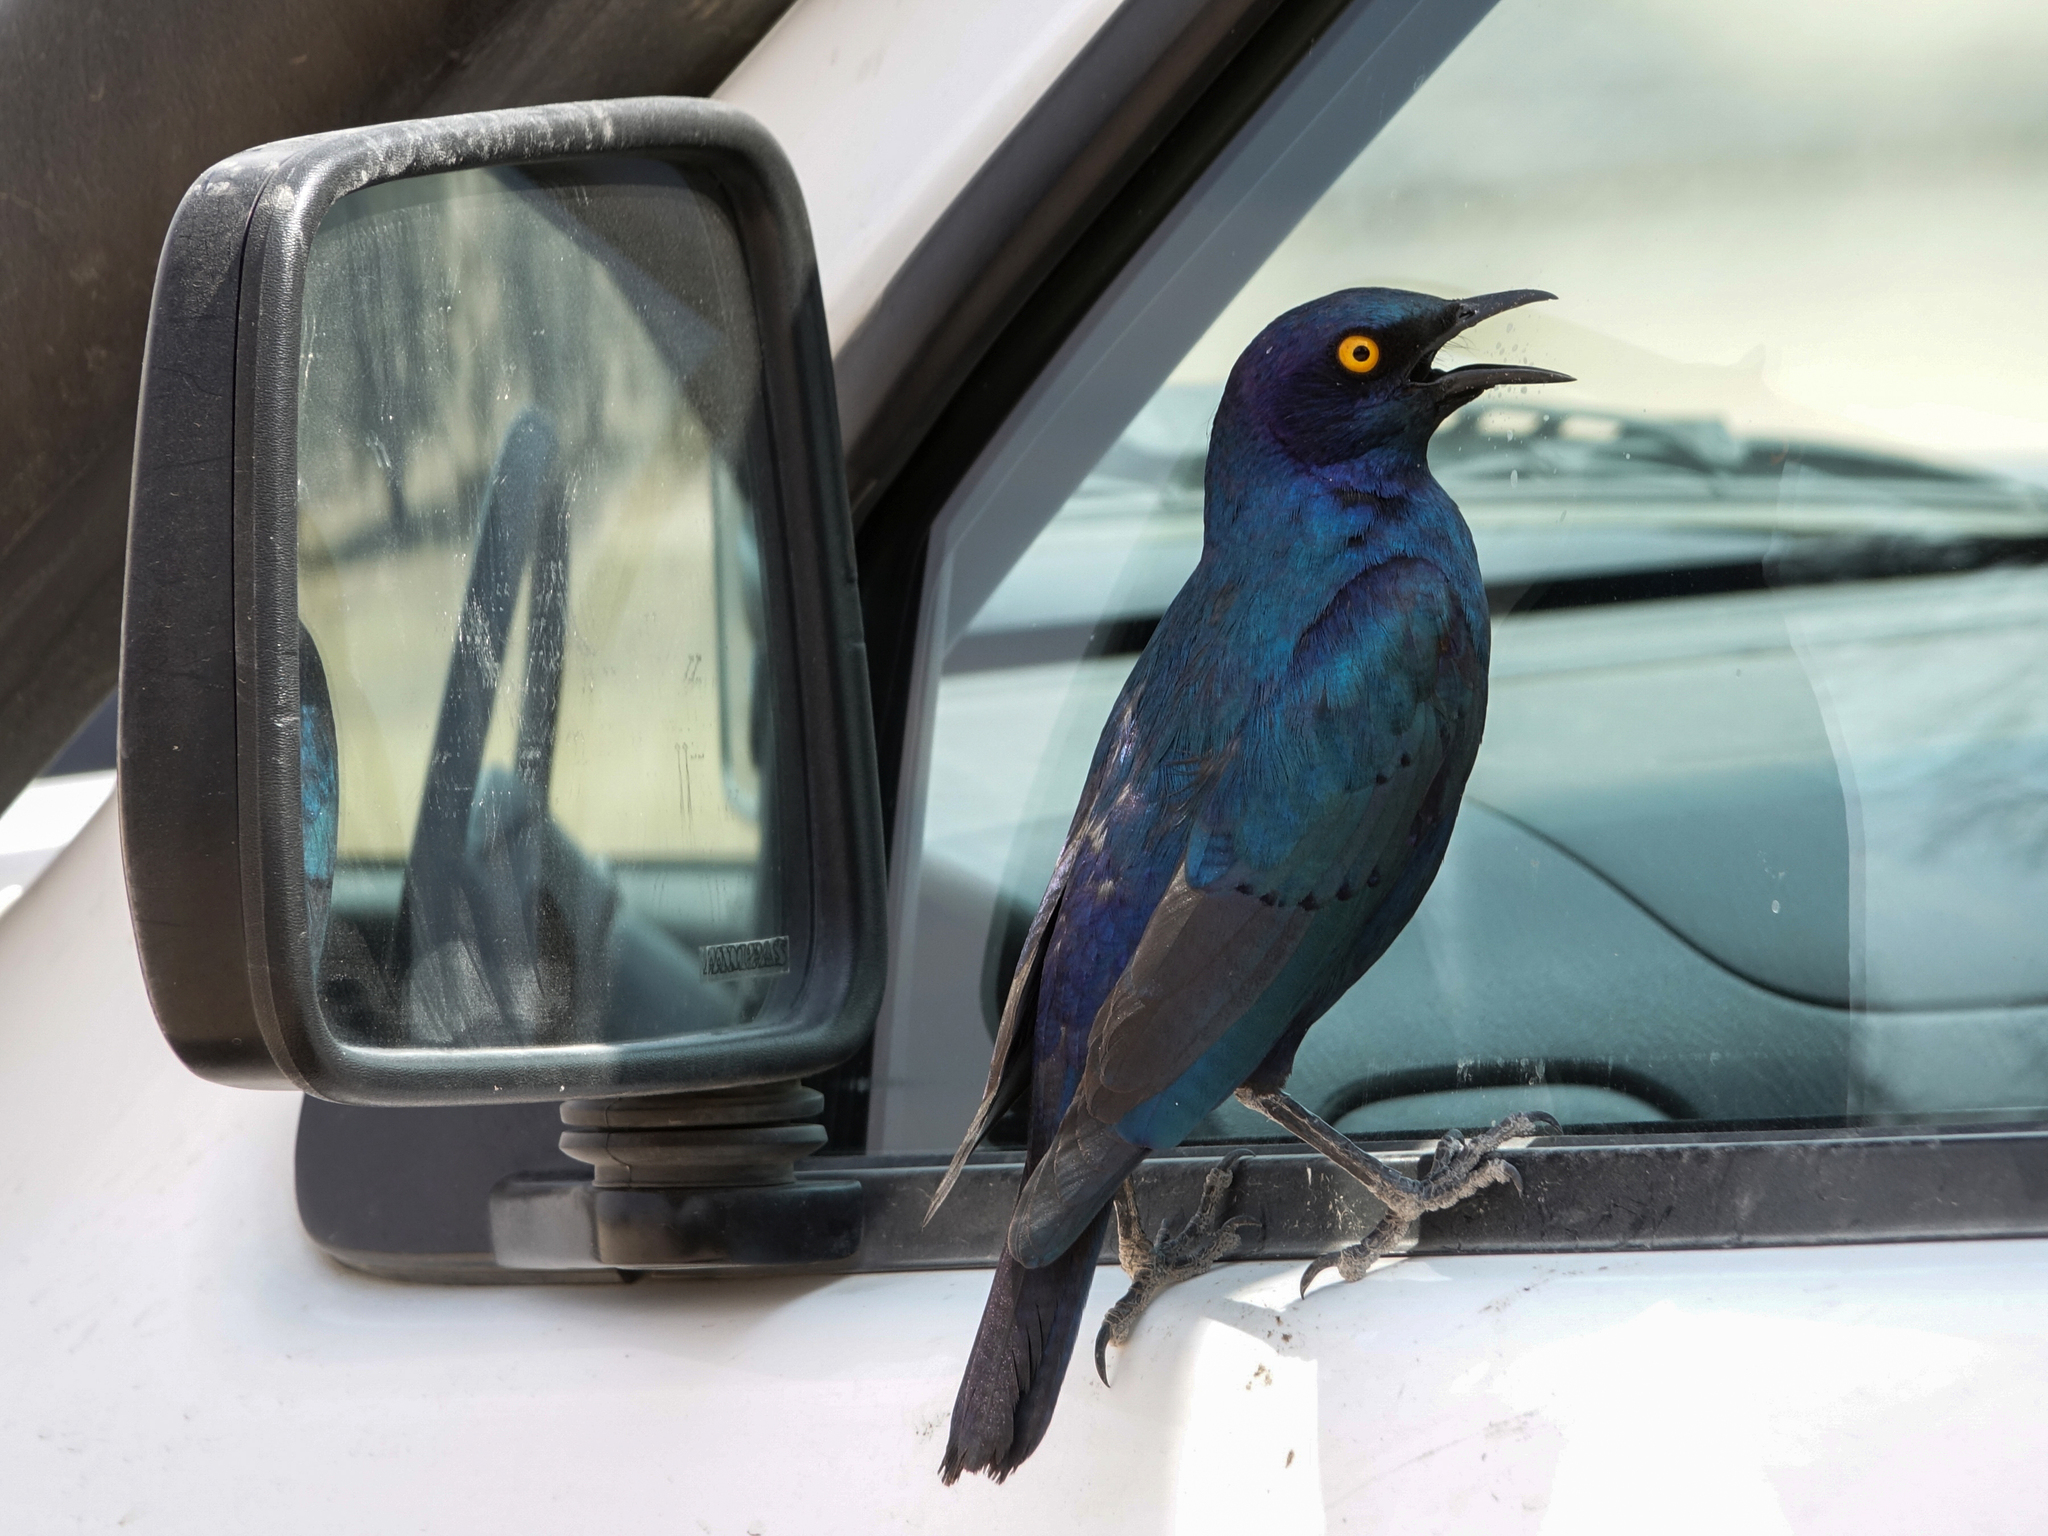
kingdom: Animalia
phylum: Chordata
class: Aves
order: Passeriformes
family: Sturnidae
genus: Lamprotornis
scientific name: Lamprotornis nitens
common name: Cape starling
